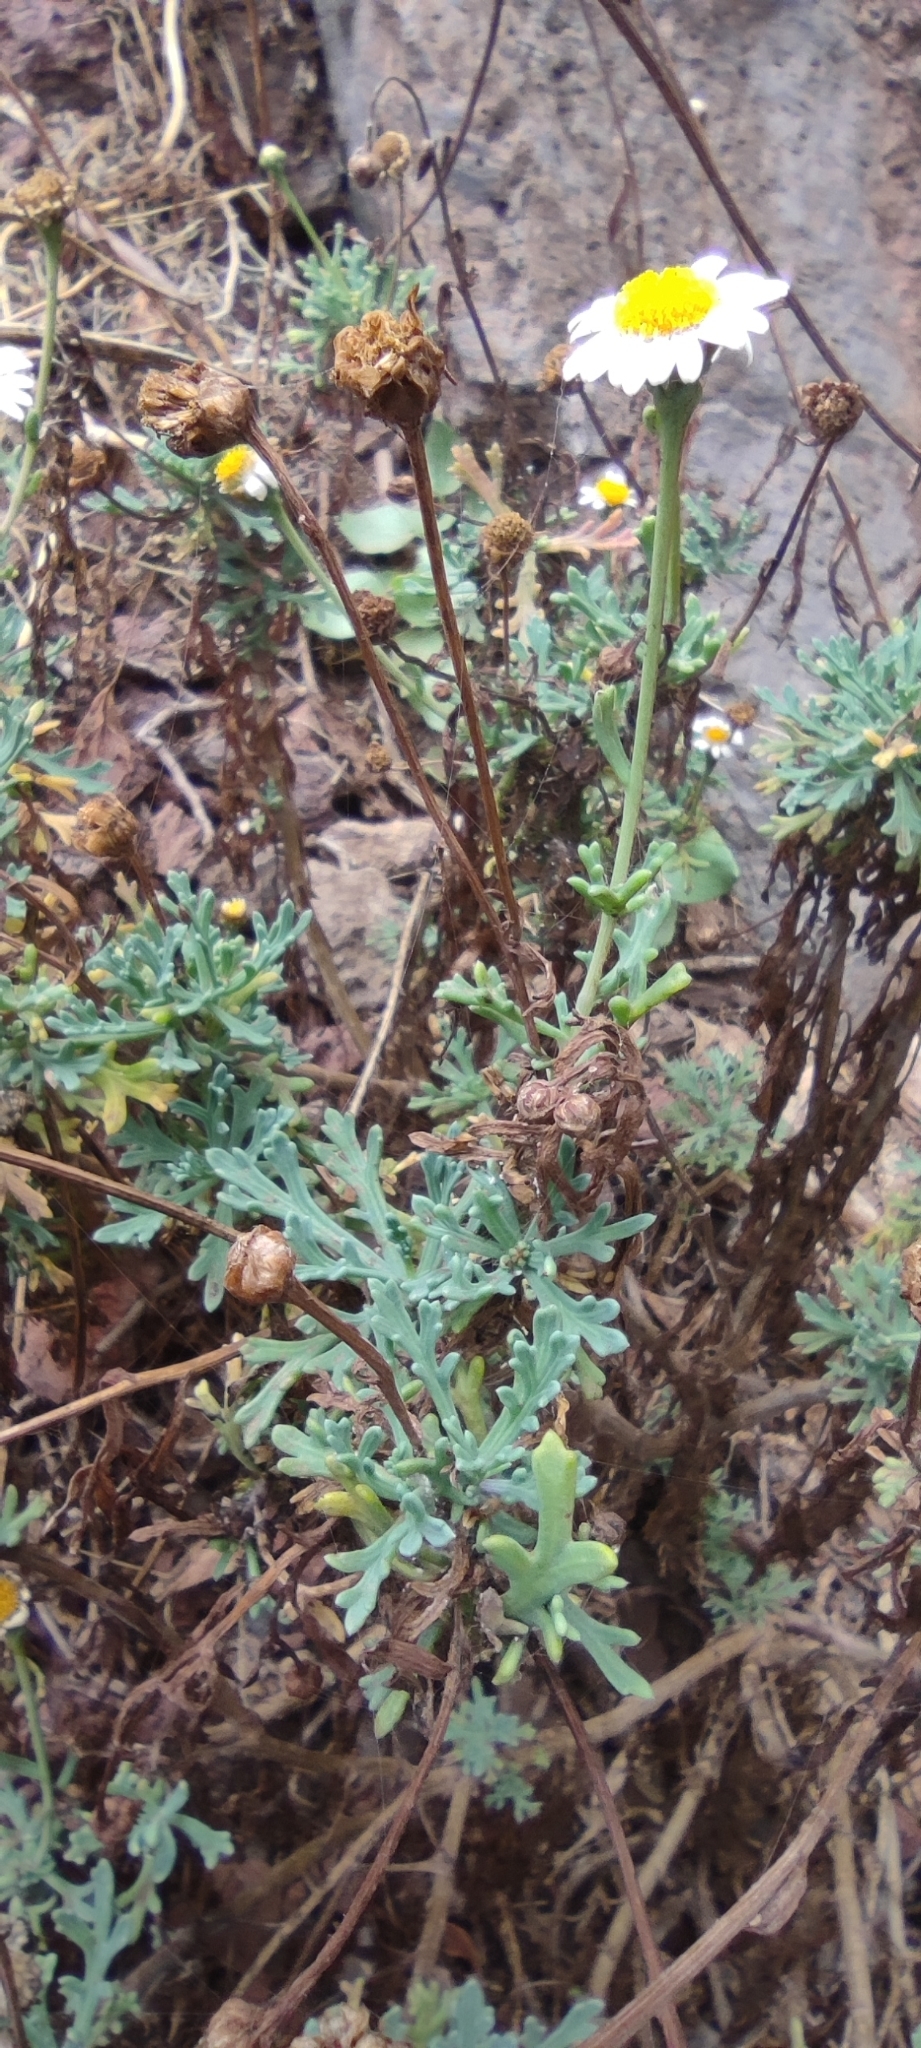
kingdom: Plantae
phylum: Tracheophyta
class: Magnoliopsida
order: Asterales
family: Asteraceae
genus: Argyranthemum
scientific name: Argyranthemum frutescens
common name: Paris daisy
